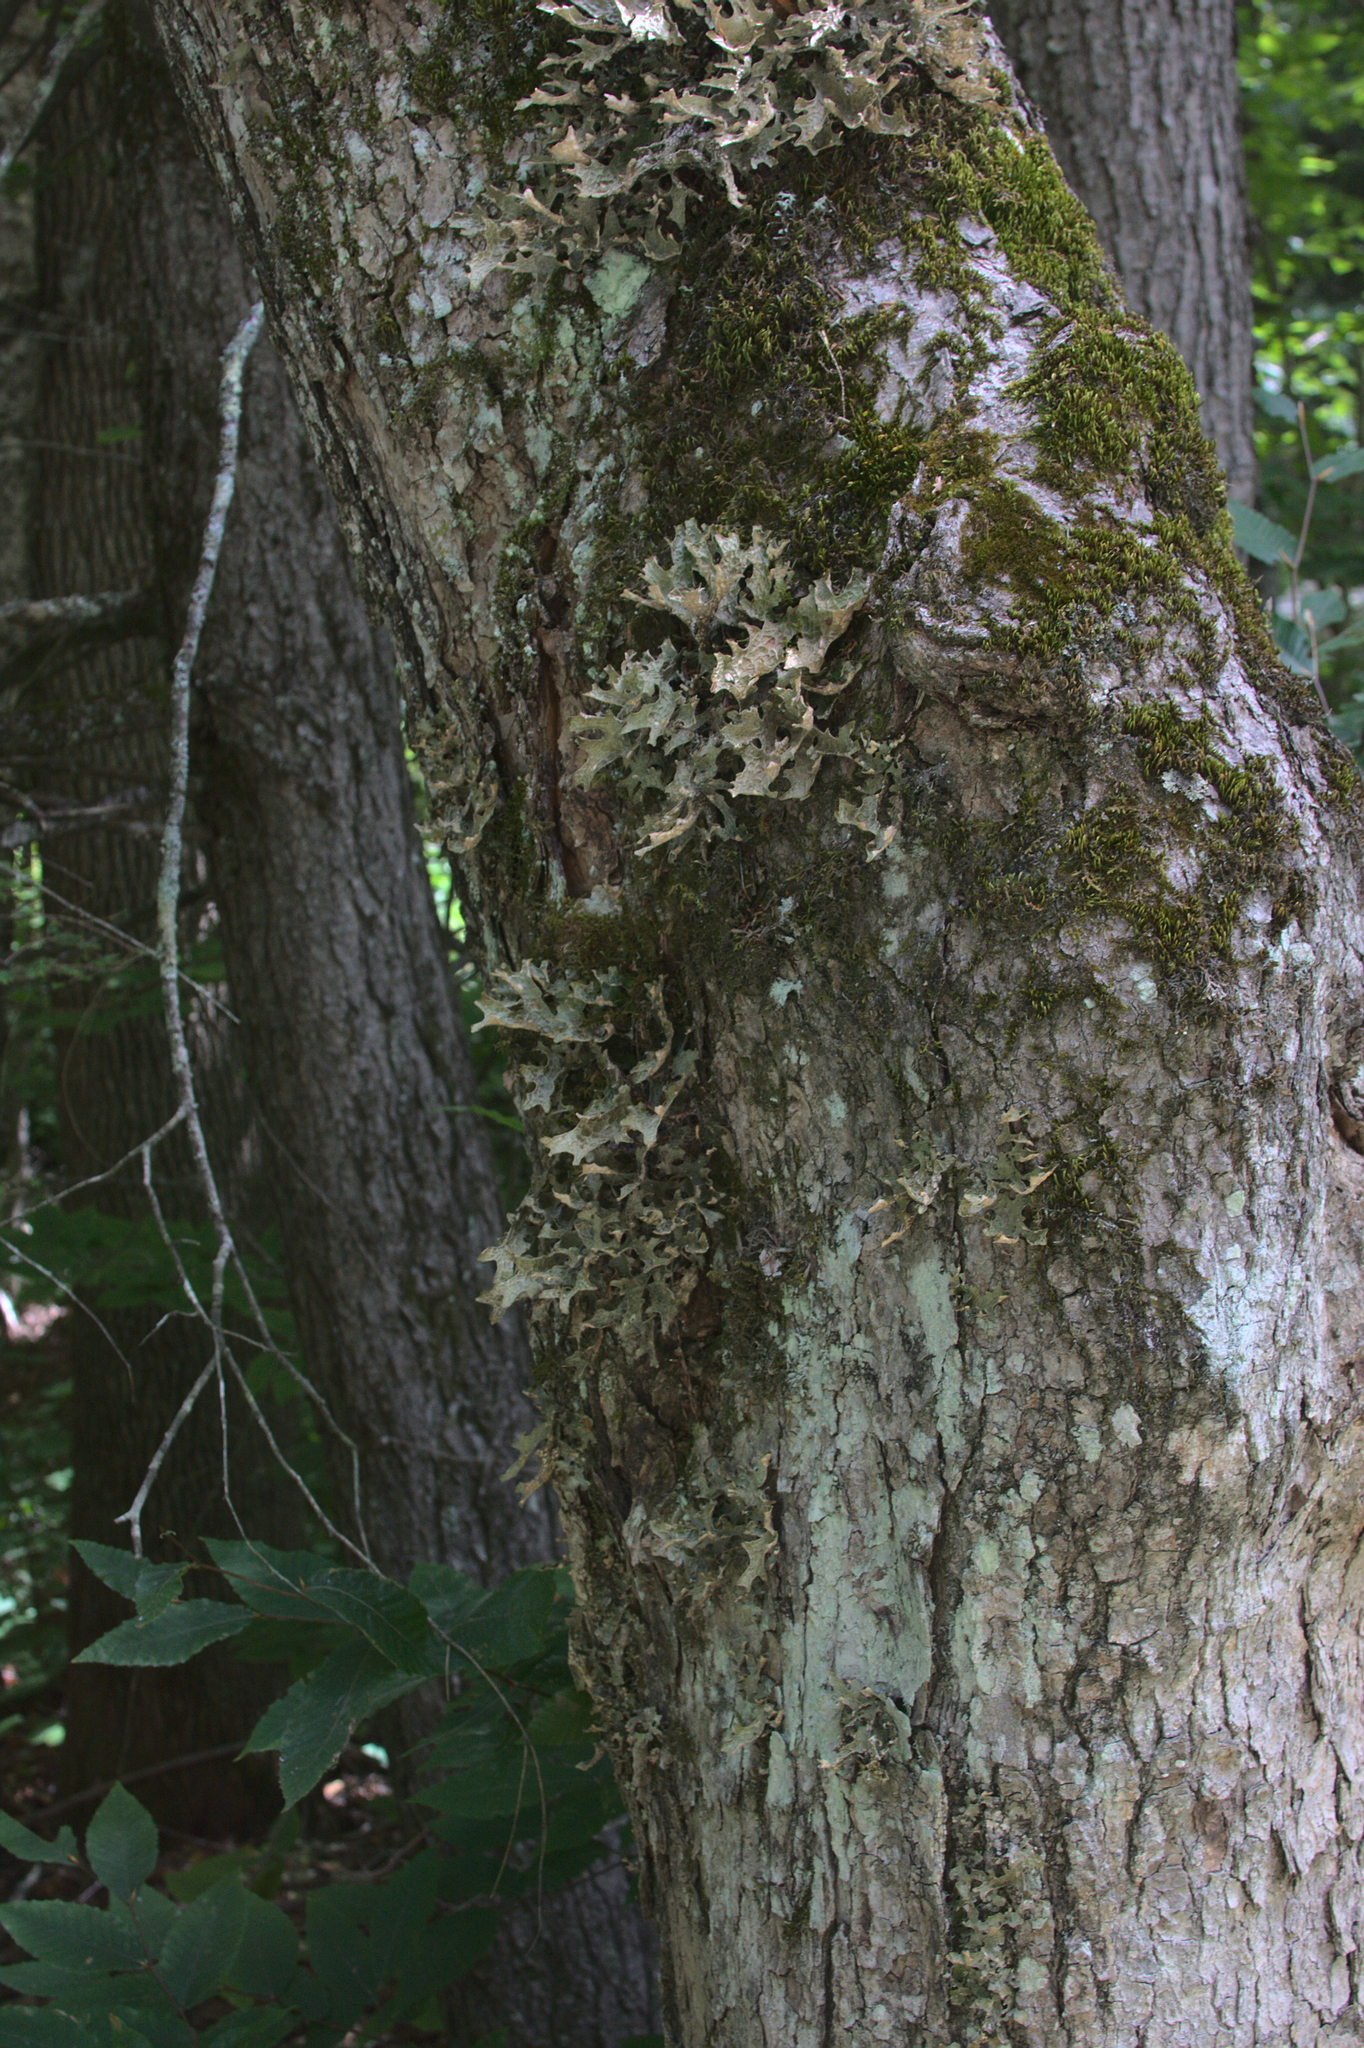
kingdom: Fungi
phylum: Ascomycota
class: Lecanoromycetes
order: Peltigerales
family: Lobariaceae
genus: Lobaria
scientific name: Lobaria pulmonaria
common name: Lungwort
